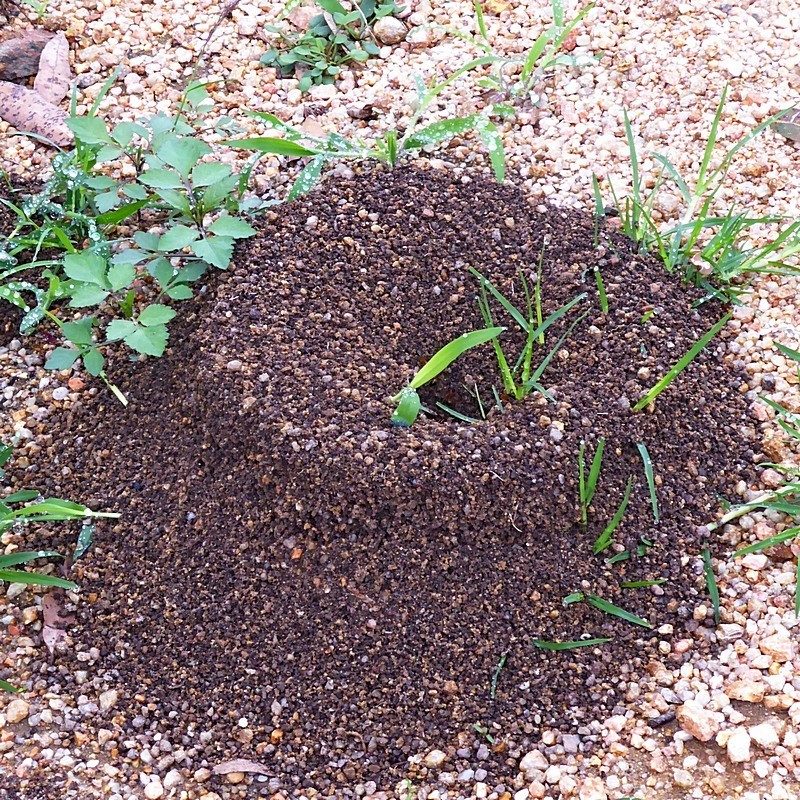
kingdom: Animalia
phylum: Arthropoda
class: Insecta
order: Hymenoptera
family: Formicidae
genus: Camponotus
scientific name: Camponotus consobrinus
